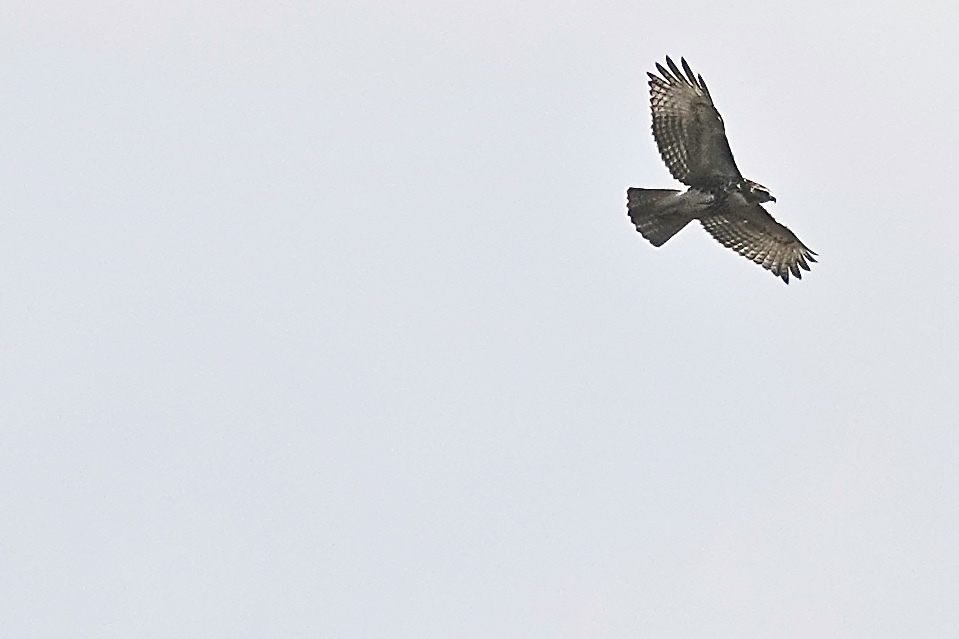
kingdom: Animalia
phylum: Chordata
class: Aves
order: Accipitriformes
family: Accipitridae
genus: Buteo
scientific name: Buteo jamaicensis
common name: Red-tailed hawk
